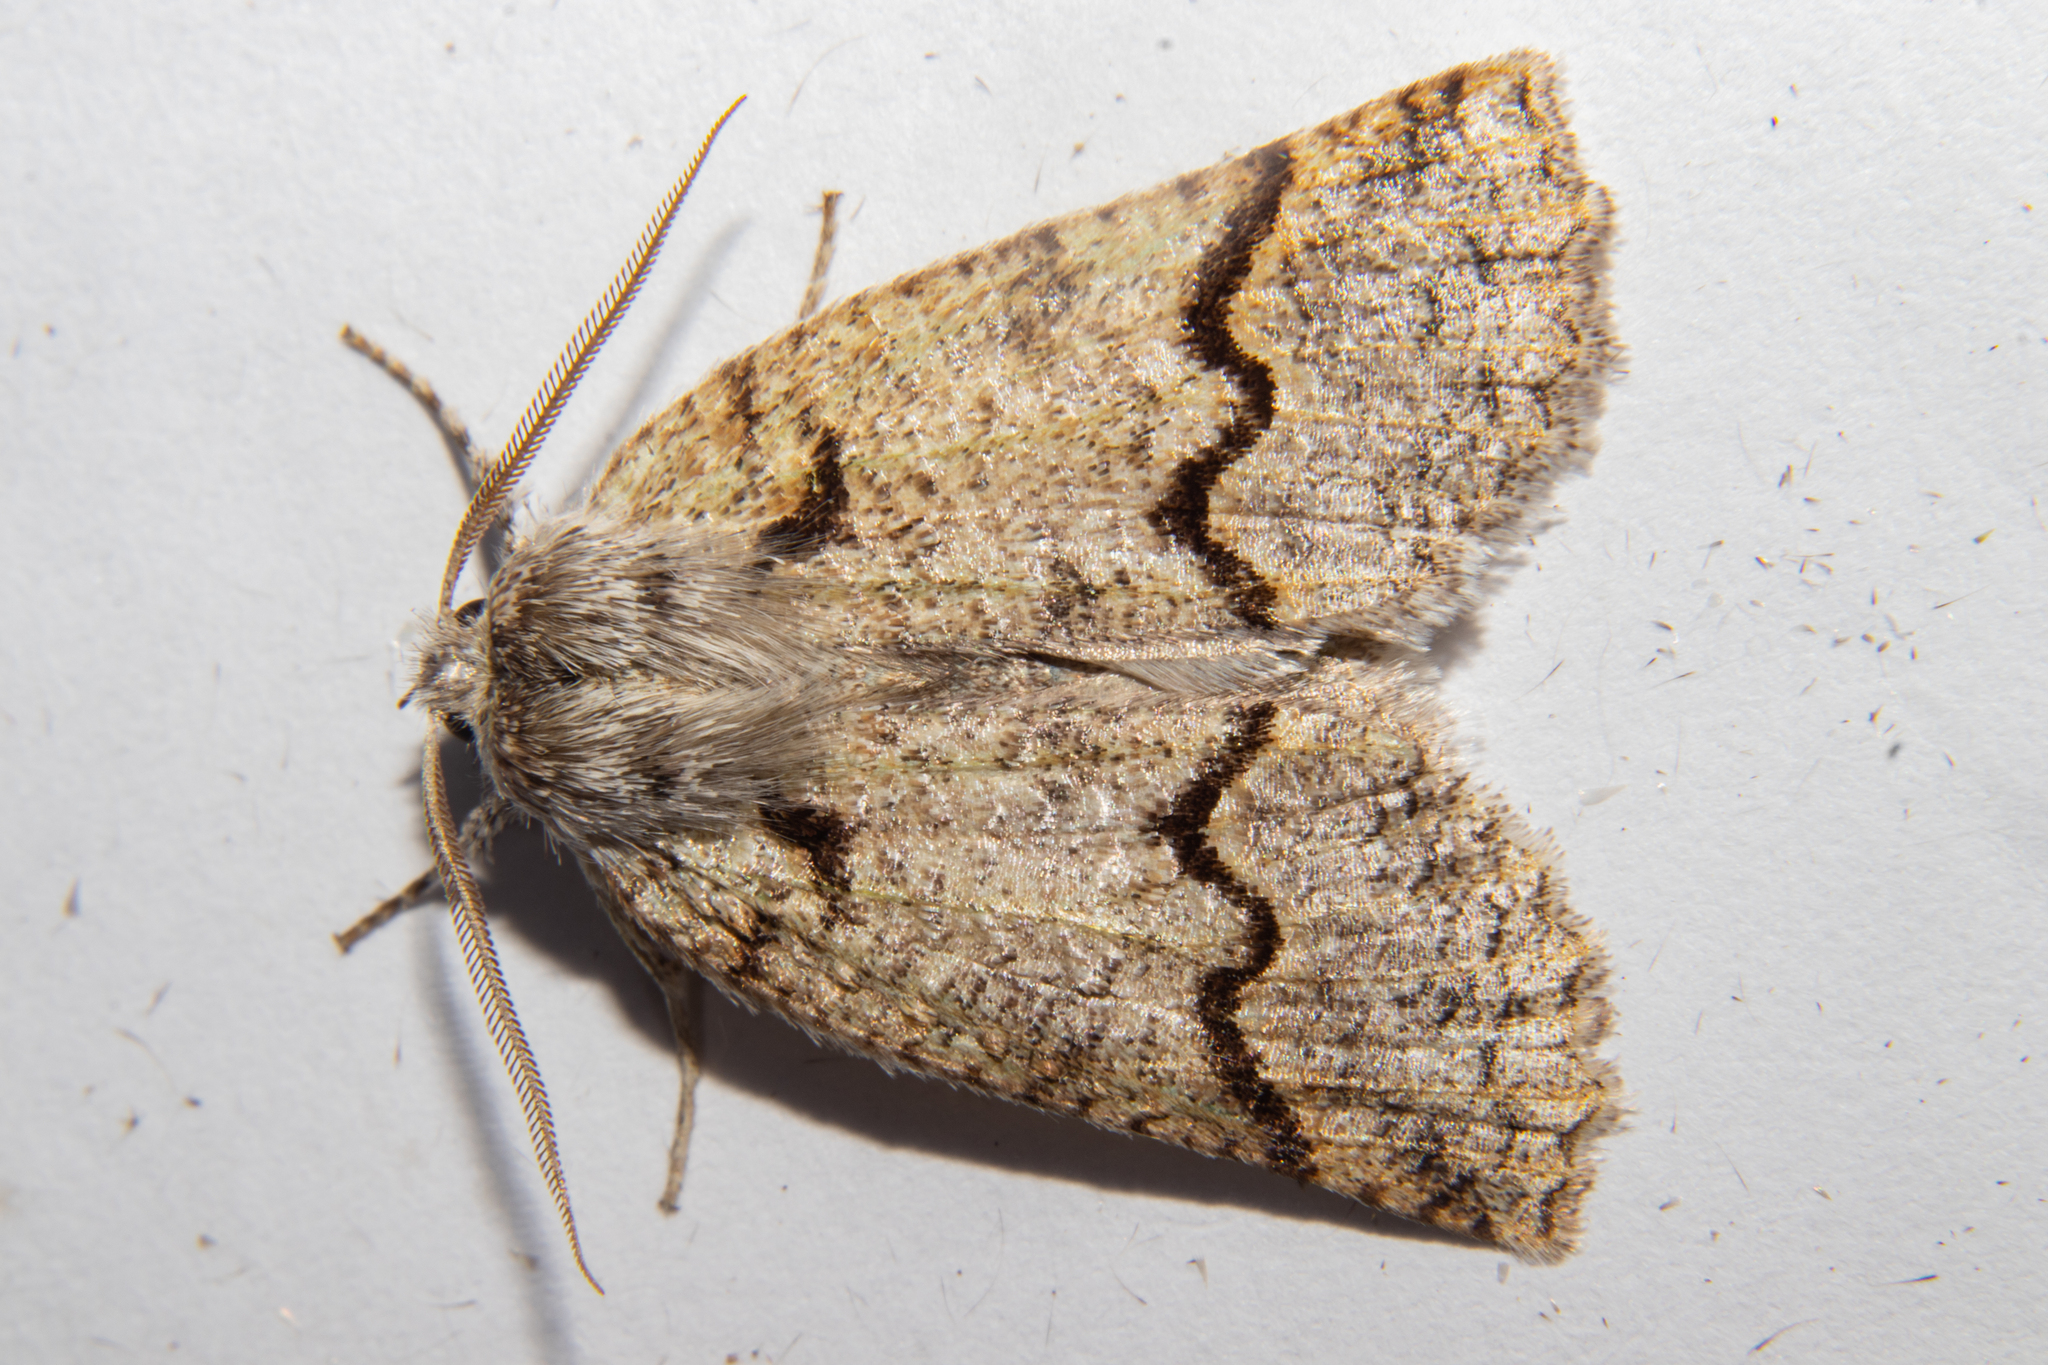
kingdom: Animalia
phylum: Arthropoda
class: Insecta
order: Lepidoptera
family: Geometridae
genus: Declana
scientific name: Declana floccosa
